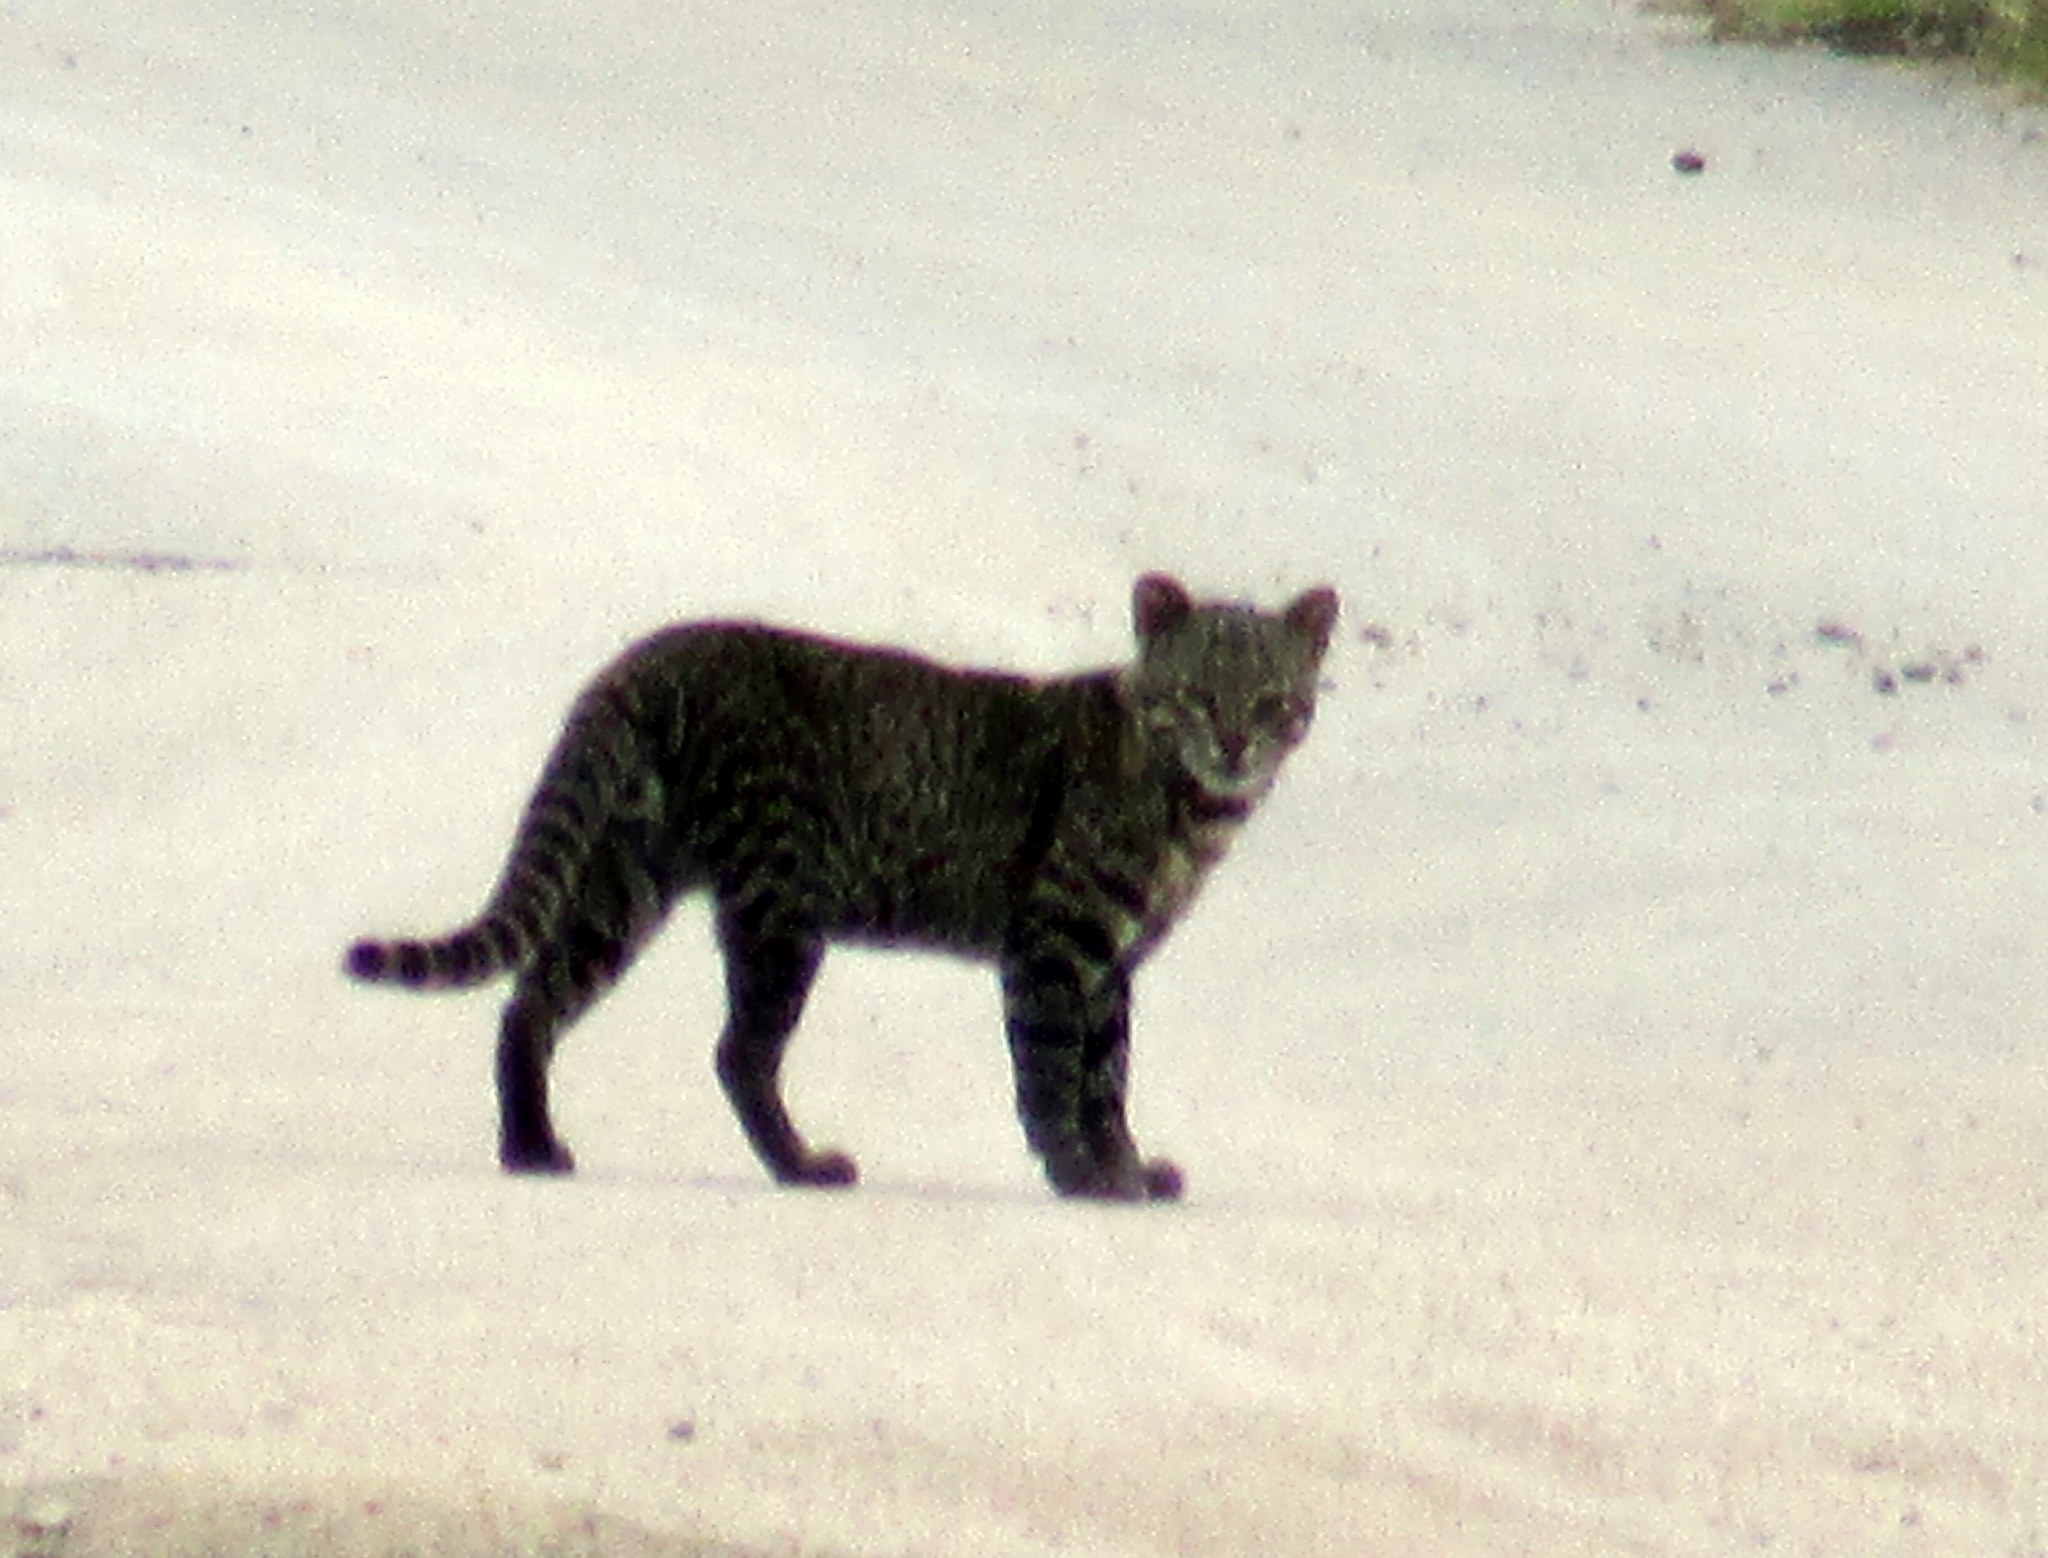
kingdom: Animalia
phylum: Chordata
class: Mammalia
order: Carnivora
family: Felidae
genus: Leopardus
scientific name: Leopardus geoffroyi
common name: Geoffroy's cat
